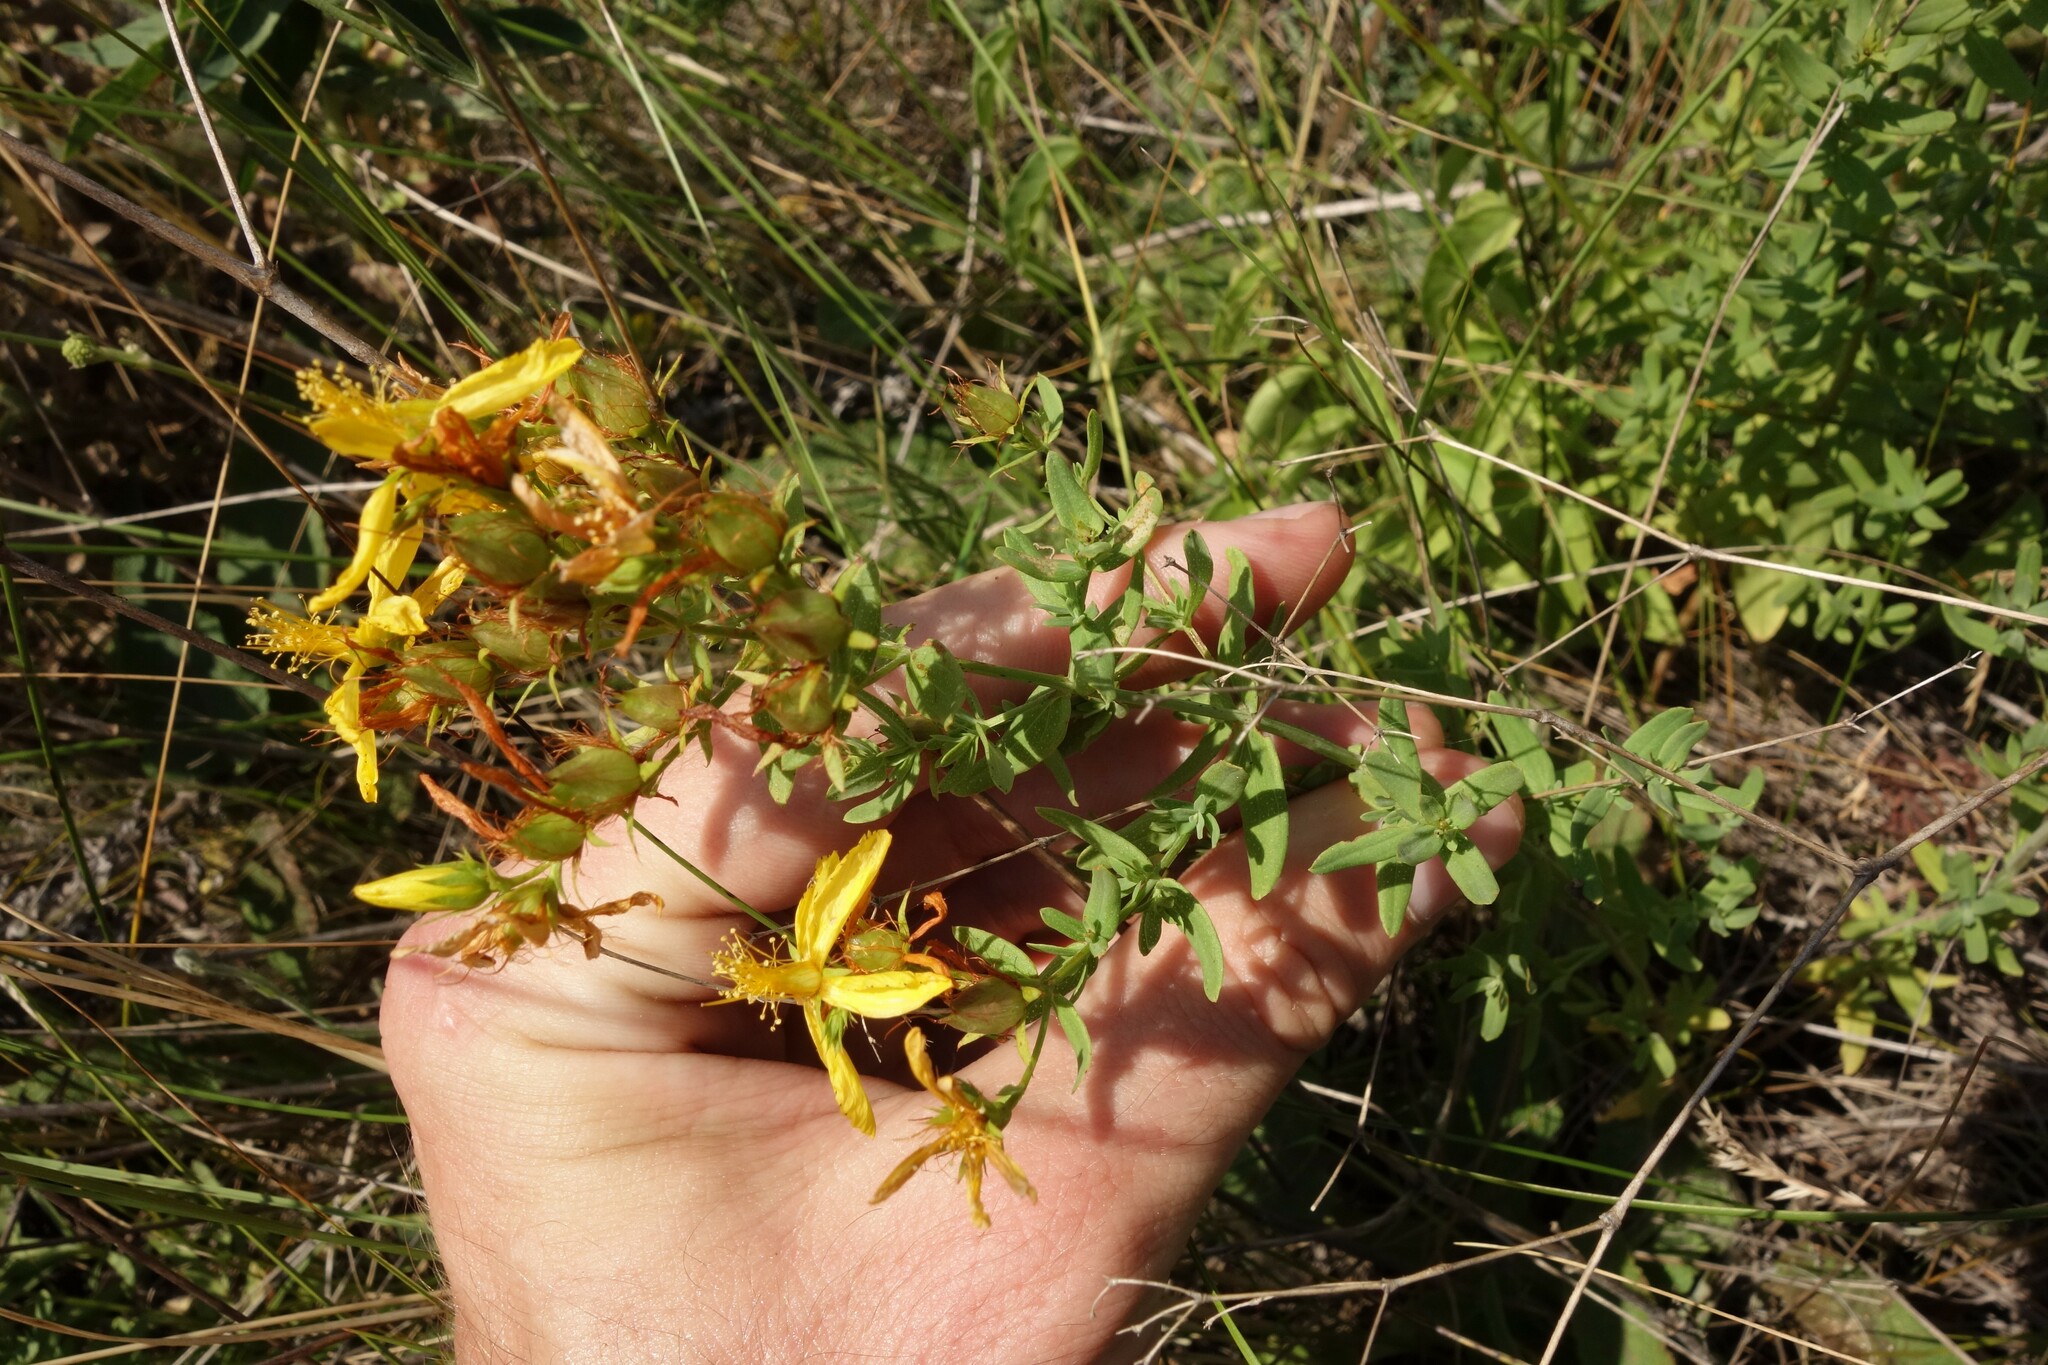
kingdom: Plantae
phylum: Tracheophyta
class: Magnoliopsida
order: Malpighiales
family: Hypericaceae
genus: Hypericum
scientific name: Hypericum perforatum
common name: Common st. johnswort
